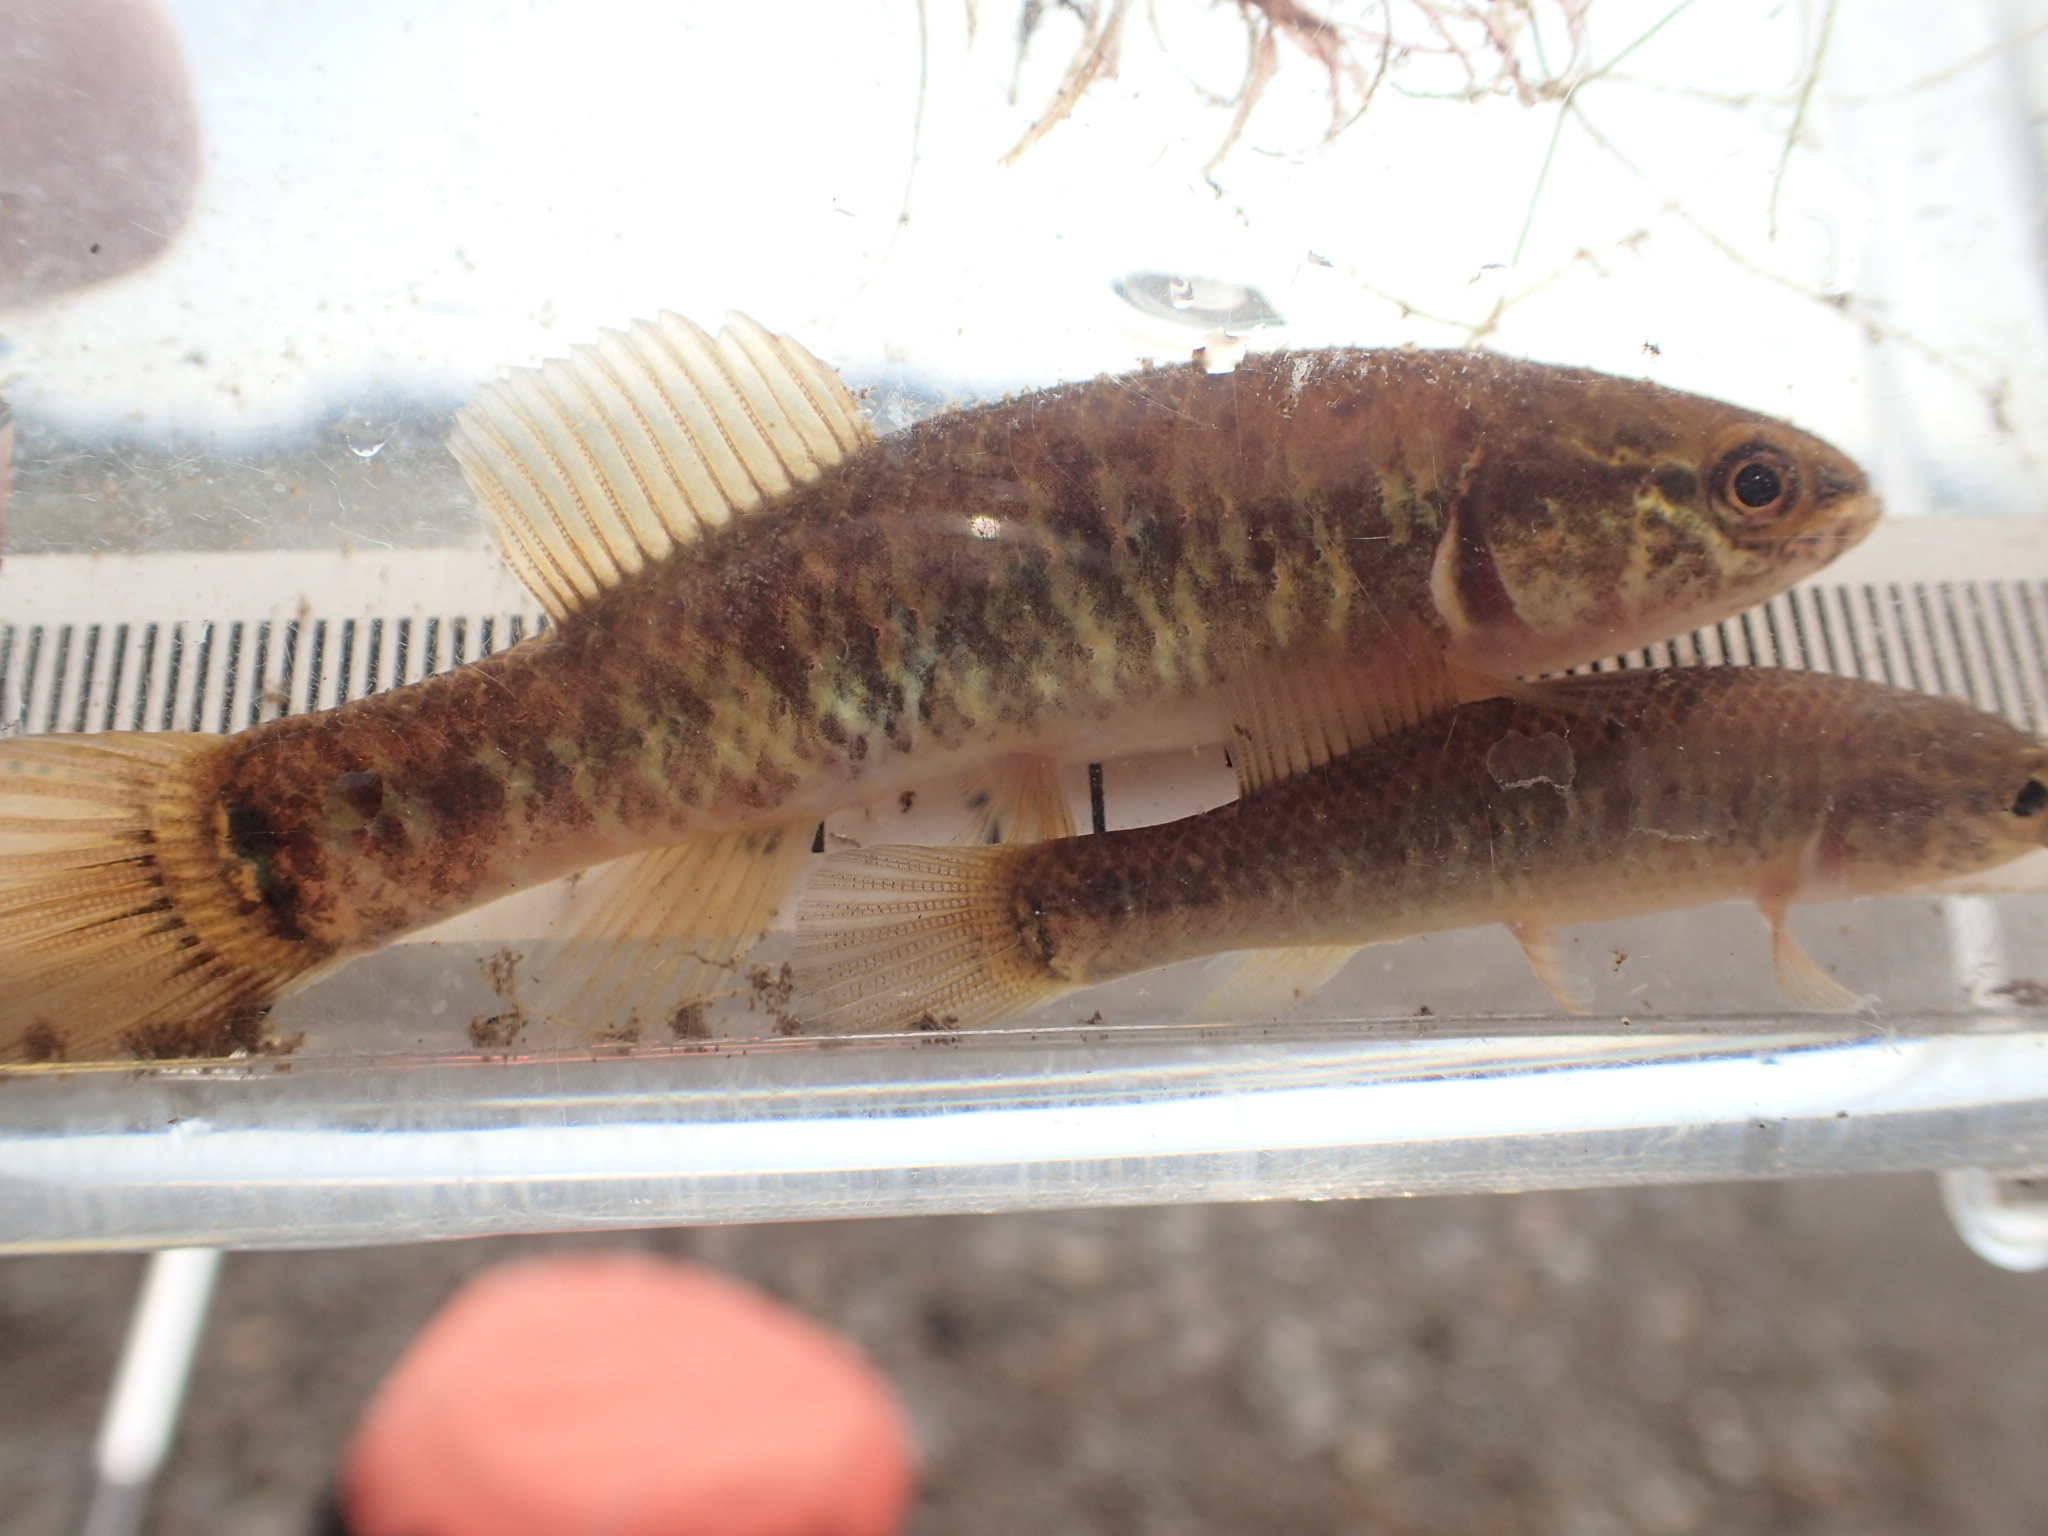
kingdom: Animalia
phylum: Chordata
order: Esociformes
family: Umbridae
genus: Umbra
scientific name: Umbra limi
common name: Central mudminnow
